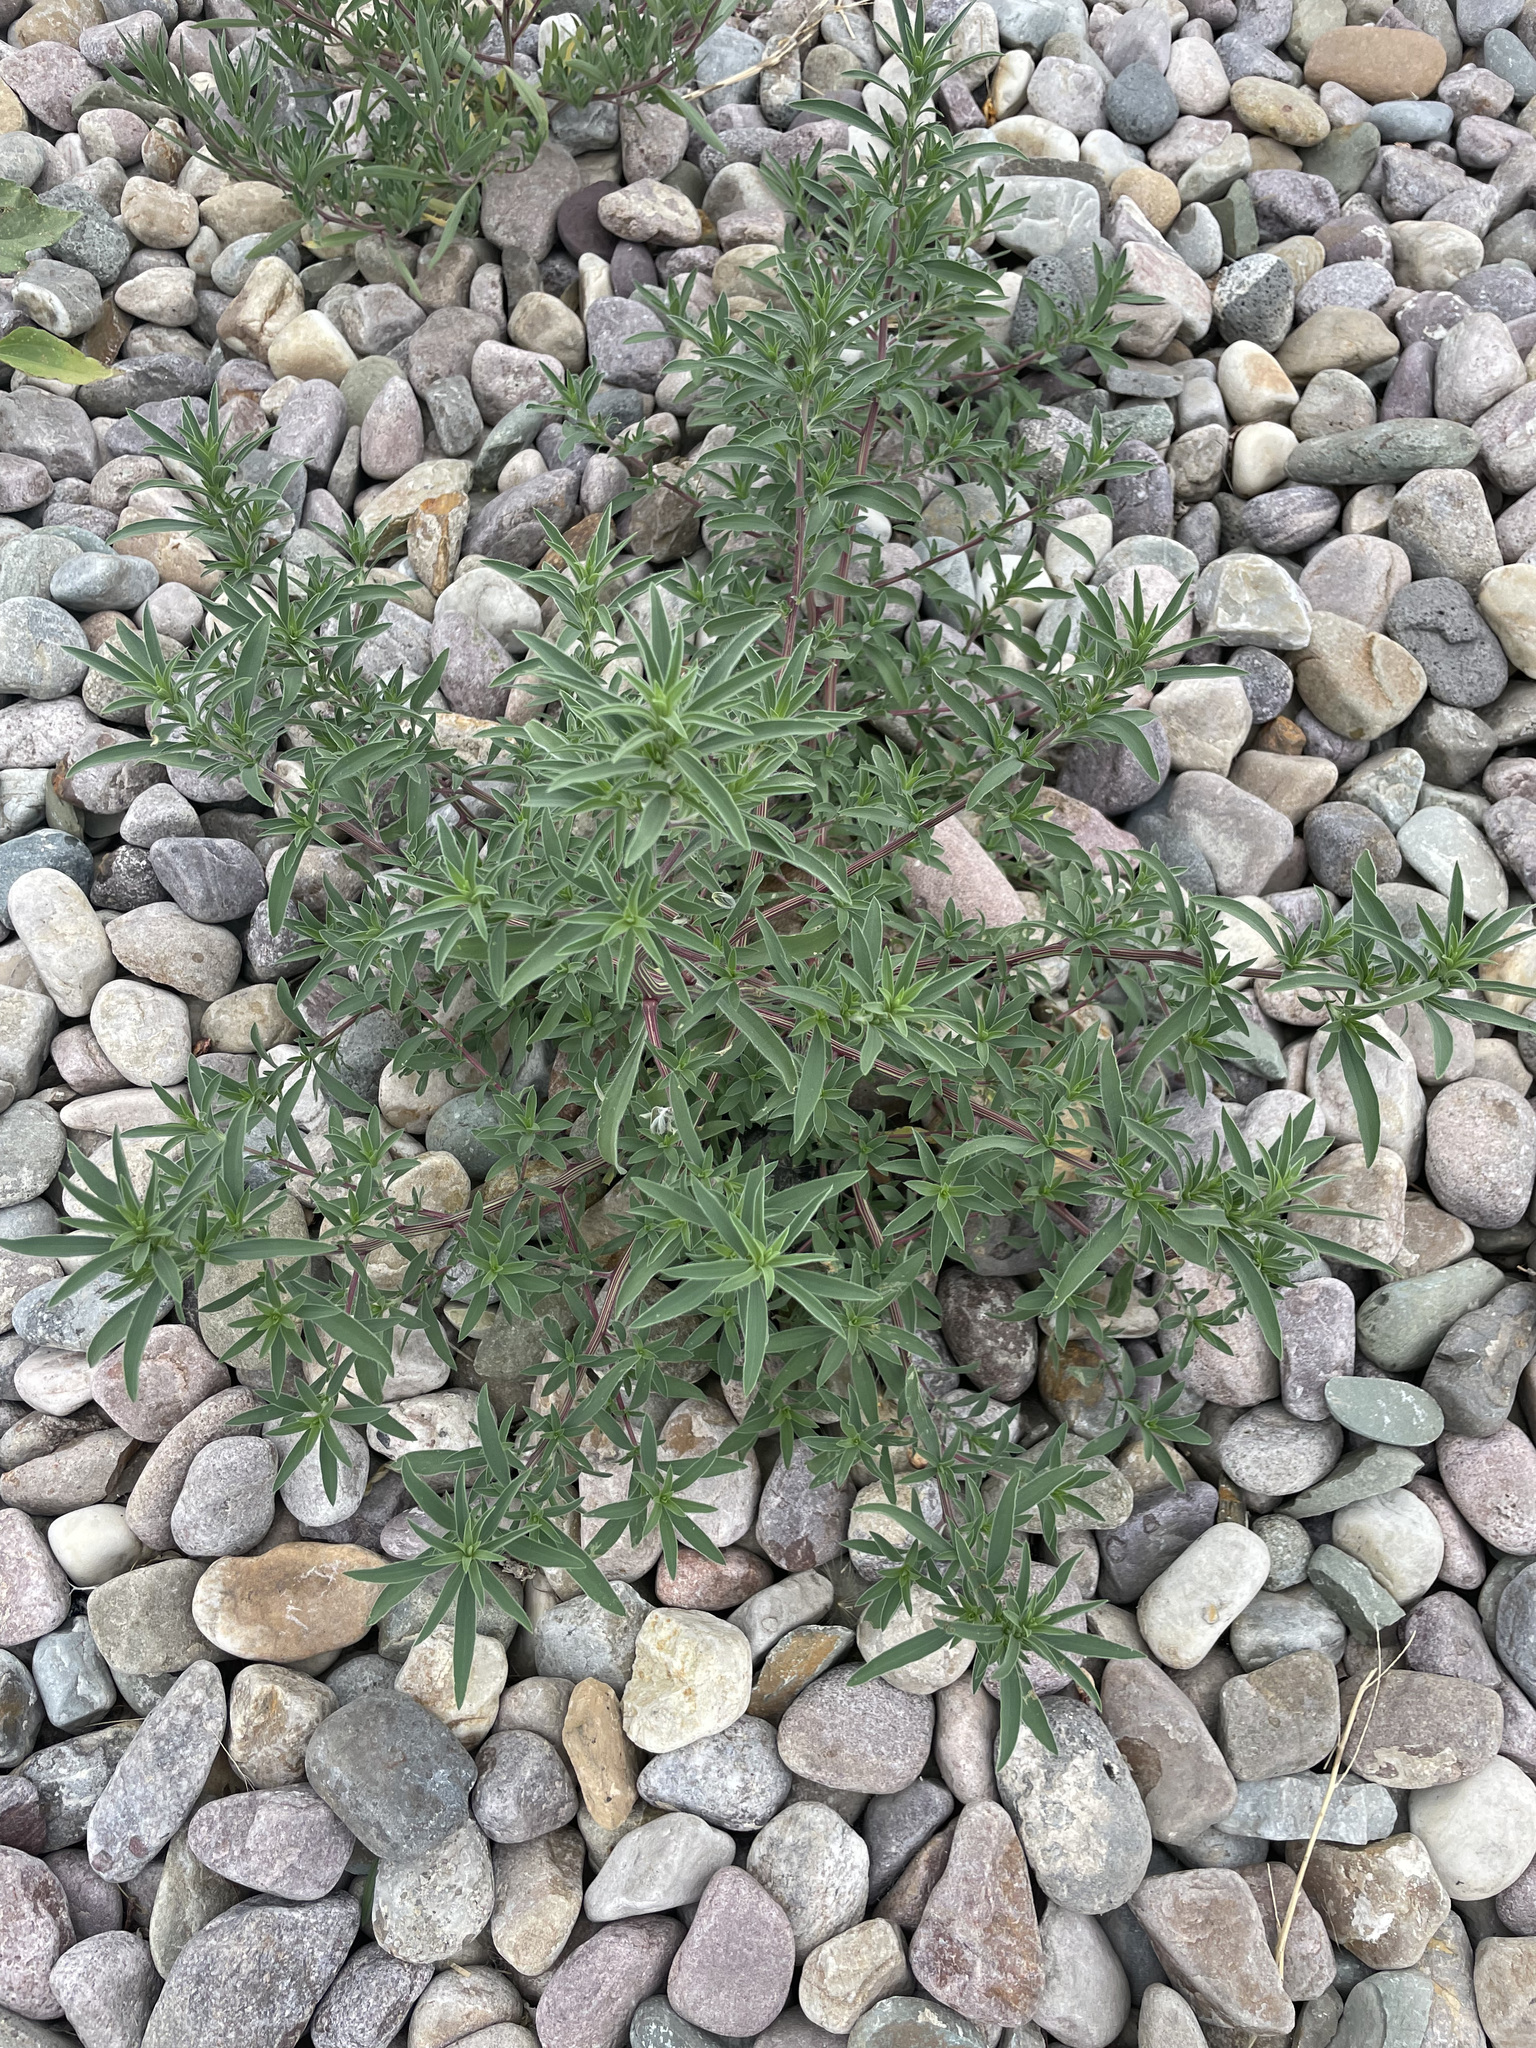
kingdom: Plantae
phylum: Tracheophyta
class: Magnoliopsida
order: Caryophyllales
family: Amaranthaceae
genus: Bassia
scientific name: Bassia scoparia
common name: Belvedere
